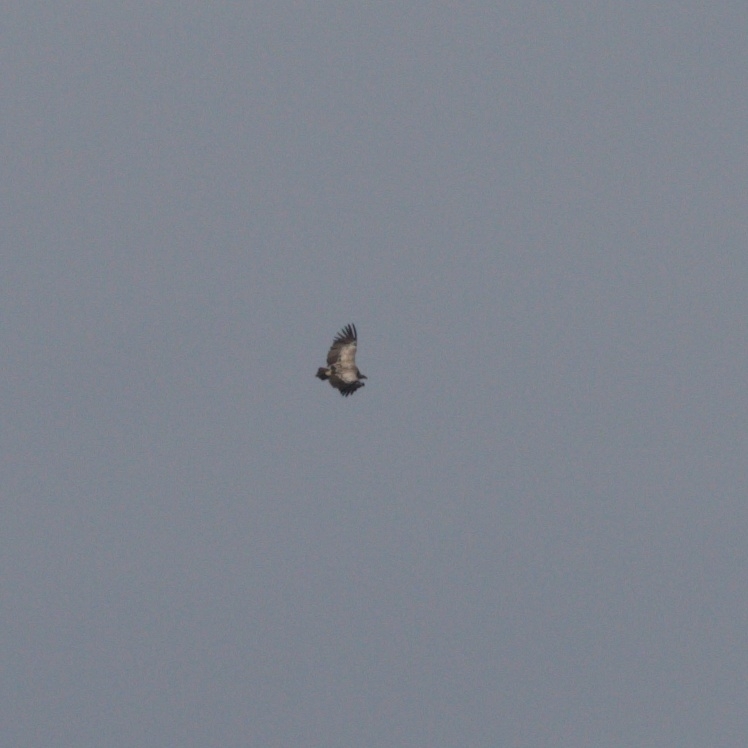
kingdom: Animalia
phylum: Chordata
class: Aves
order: Accipitriformes
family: Accipitridae
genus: Gyps
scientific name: Gyps fulvus
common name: Griffon vulture
